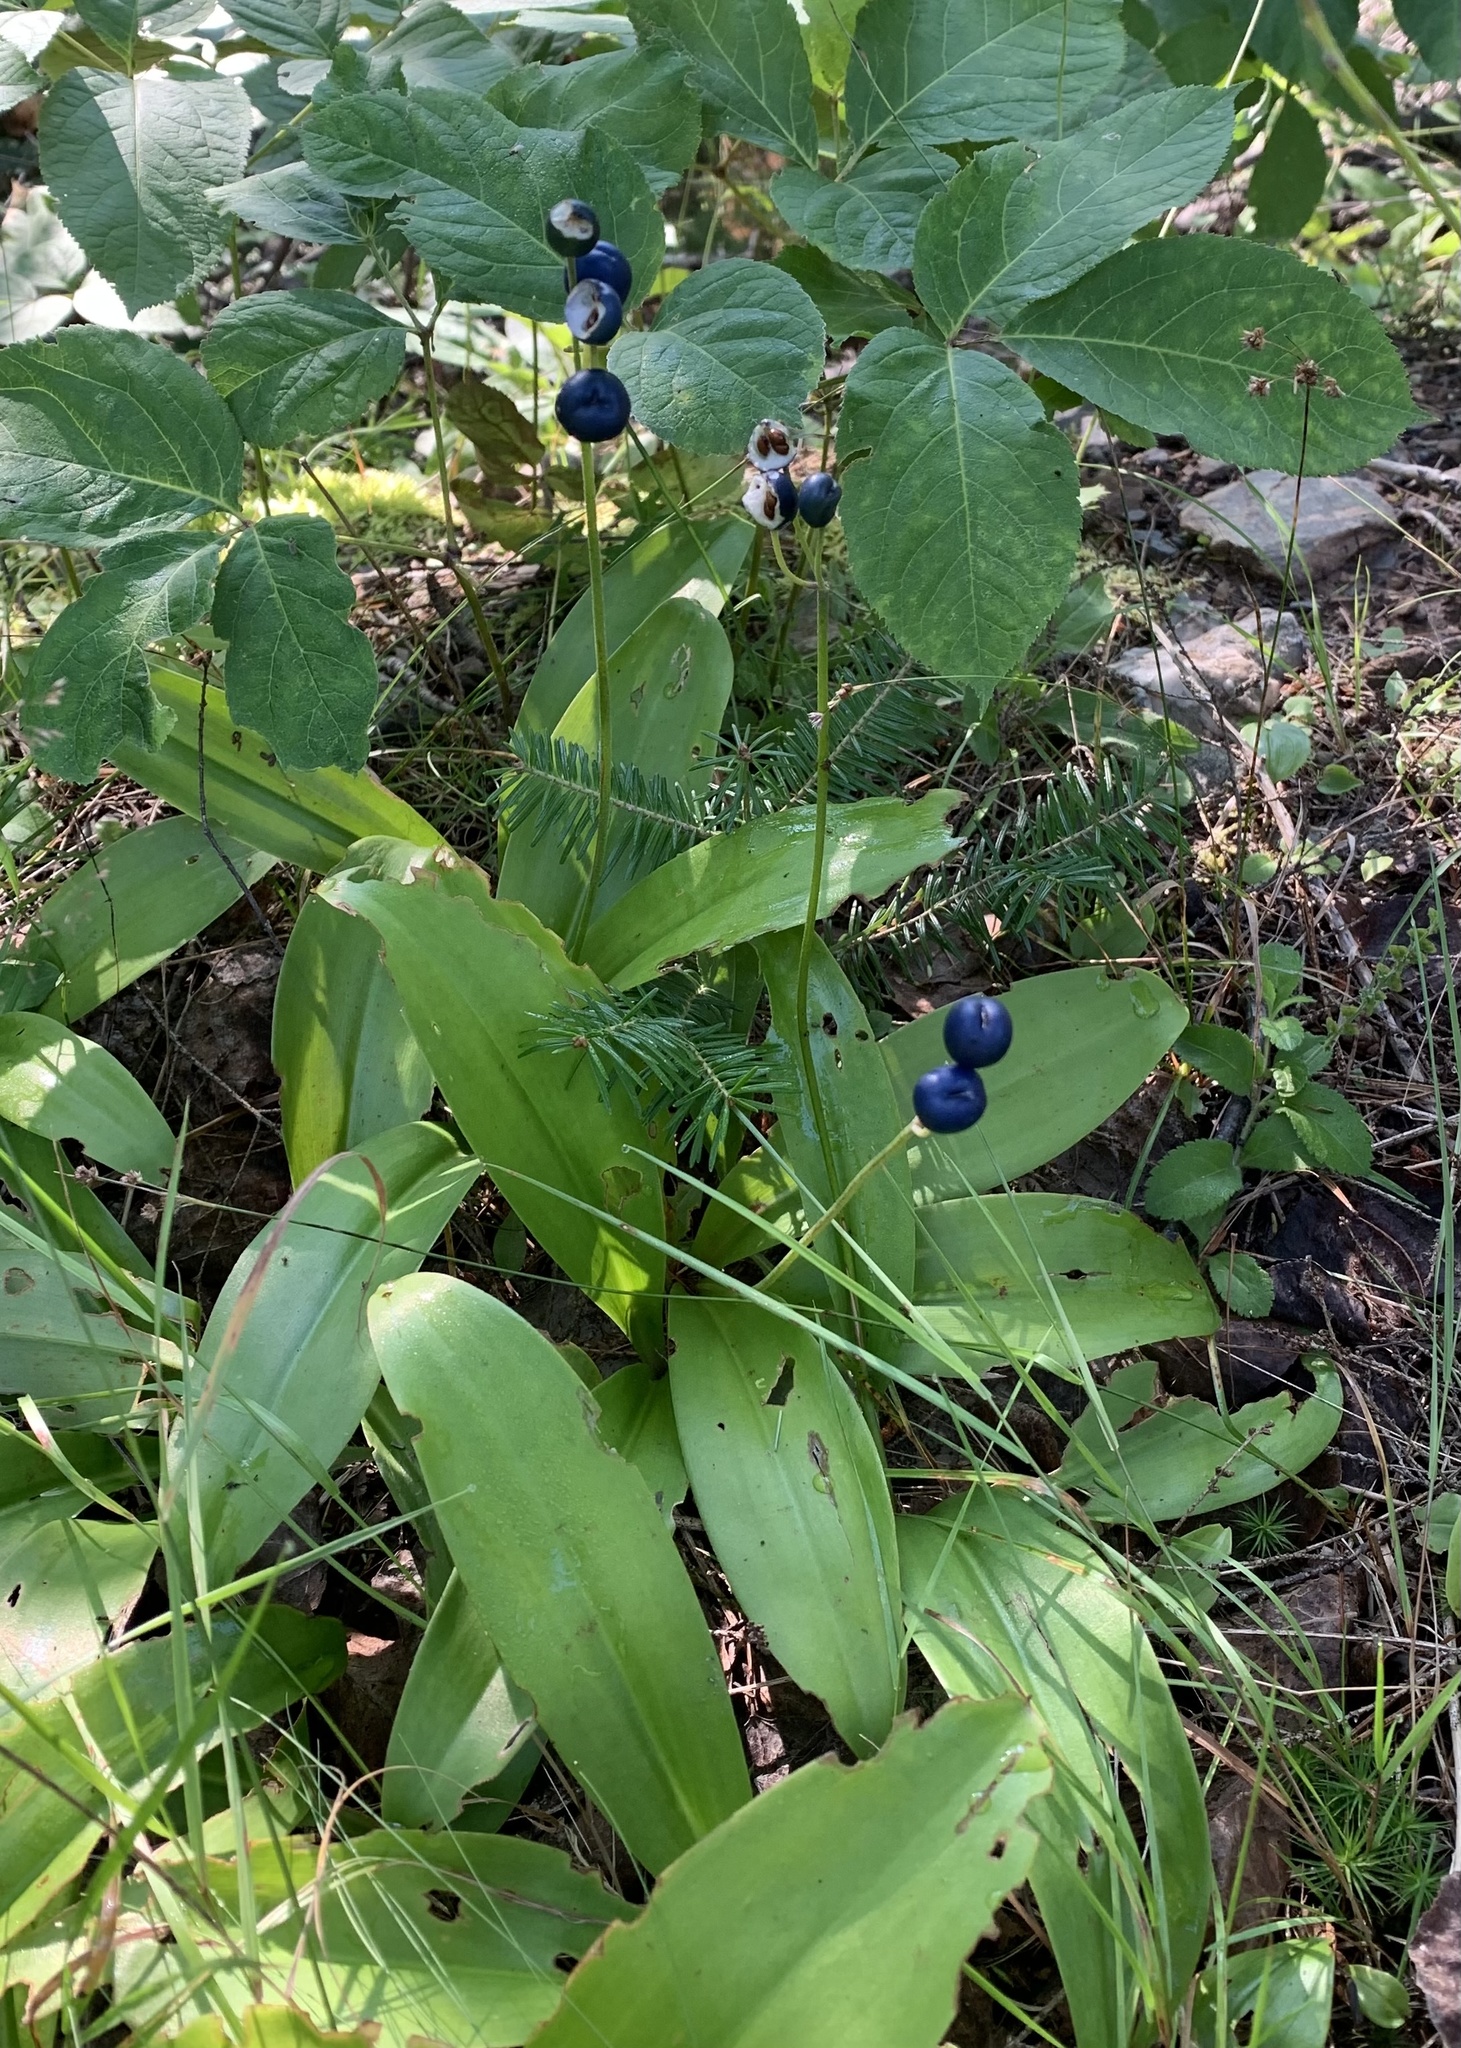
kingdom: Plantae
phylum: Tracheophyta
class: Liliopsida
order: Liliales
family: Liliaceae
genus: Clintonia
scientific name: Clintonia borealis
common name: Yellow clintonia
